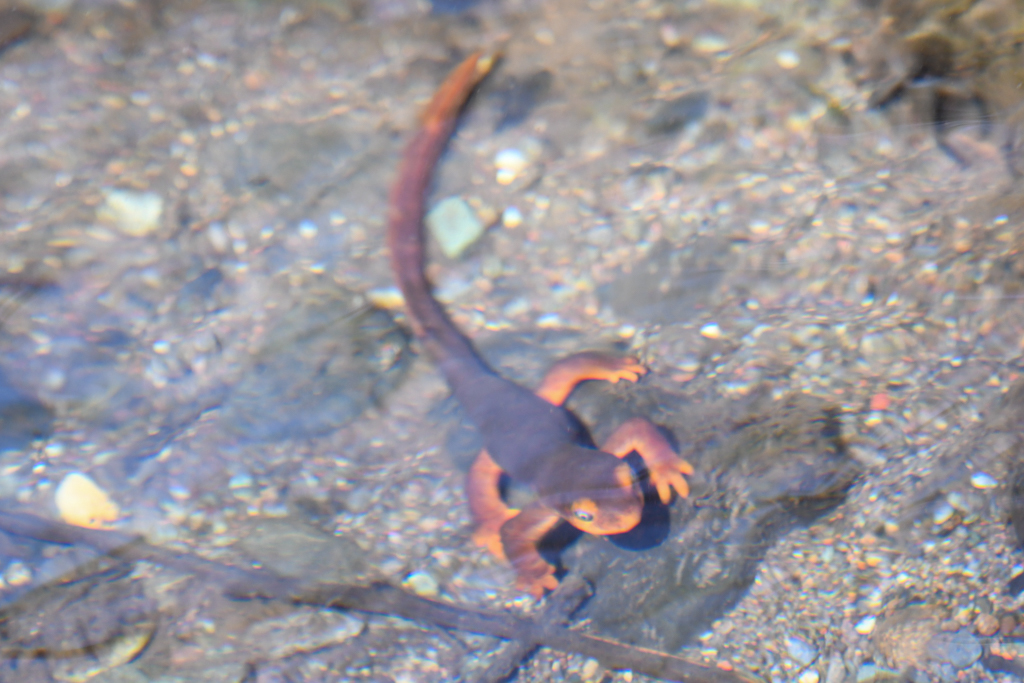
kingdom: Animalia
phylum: Chordata
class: Amphibia
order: Caudata
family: Salamandridae
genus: Taricha
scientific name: Taricha sierrae
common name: Sierra newt
